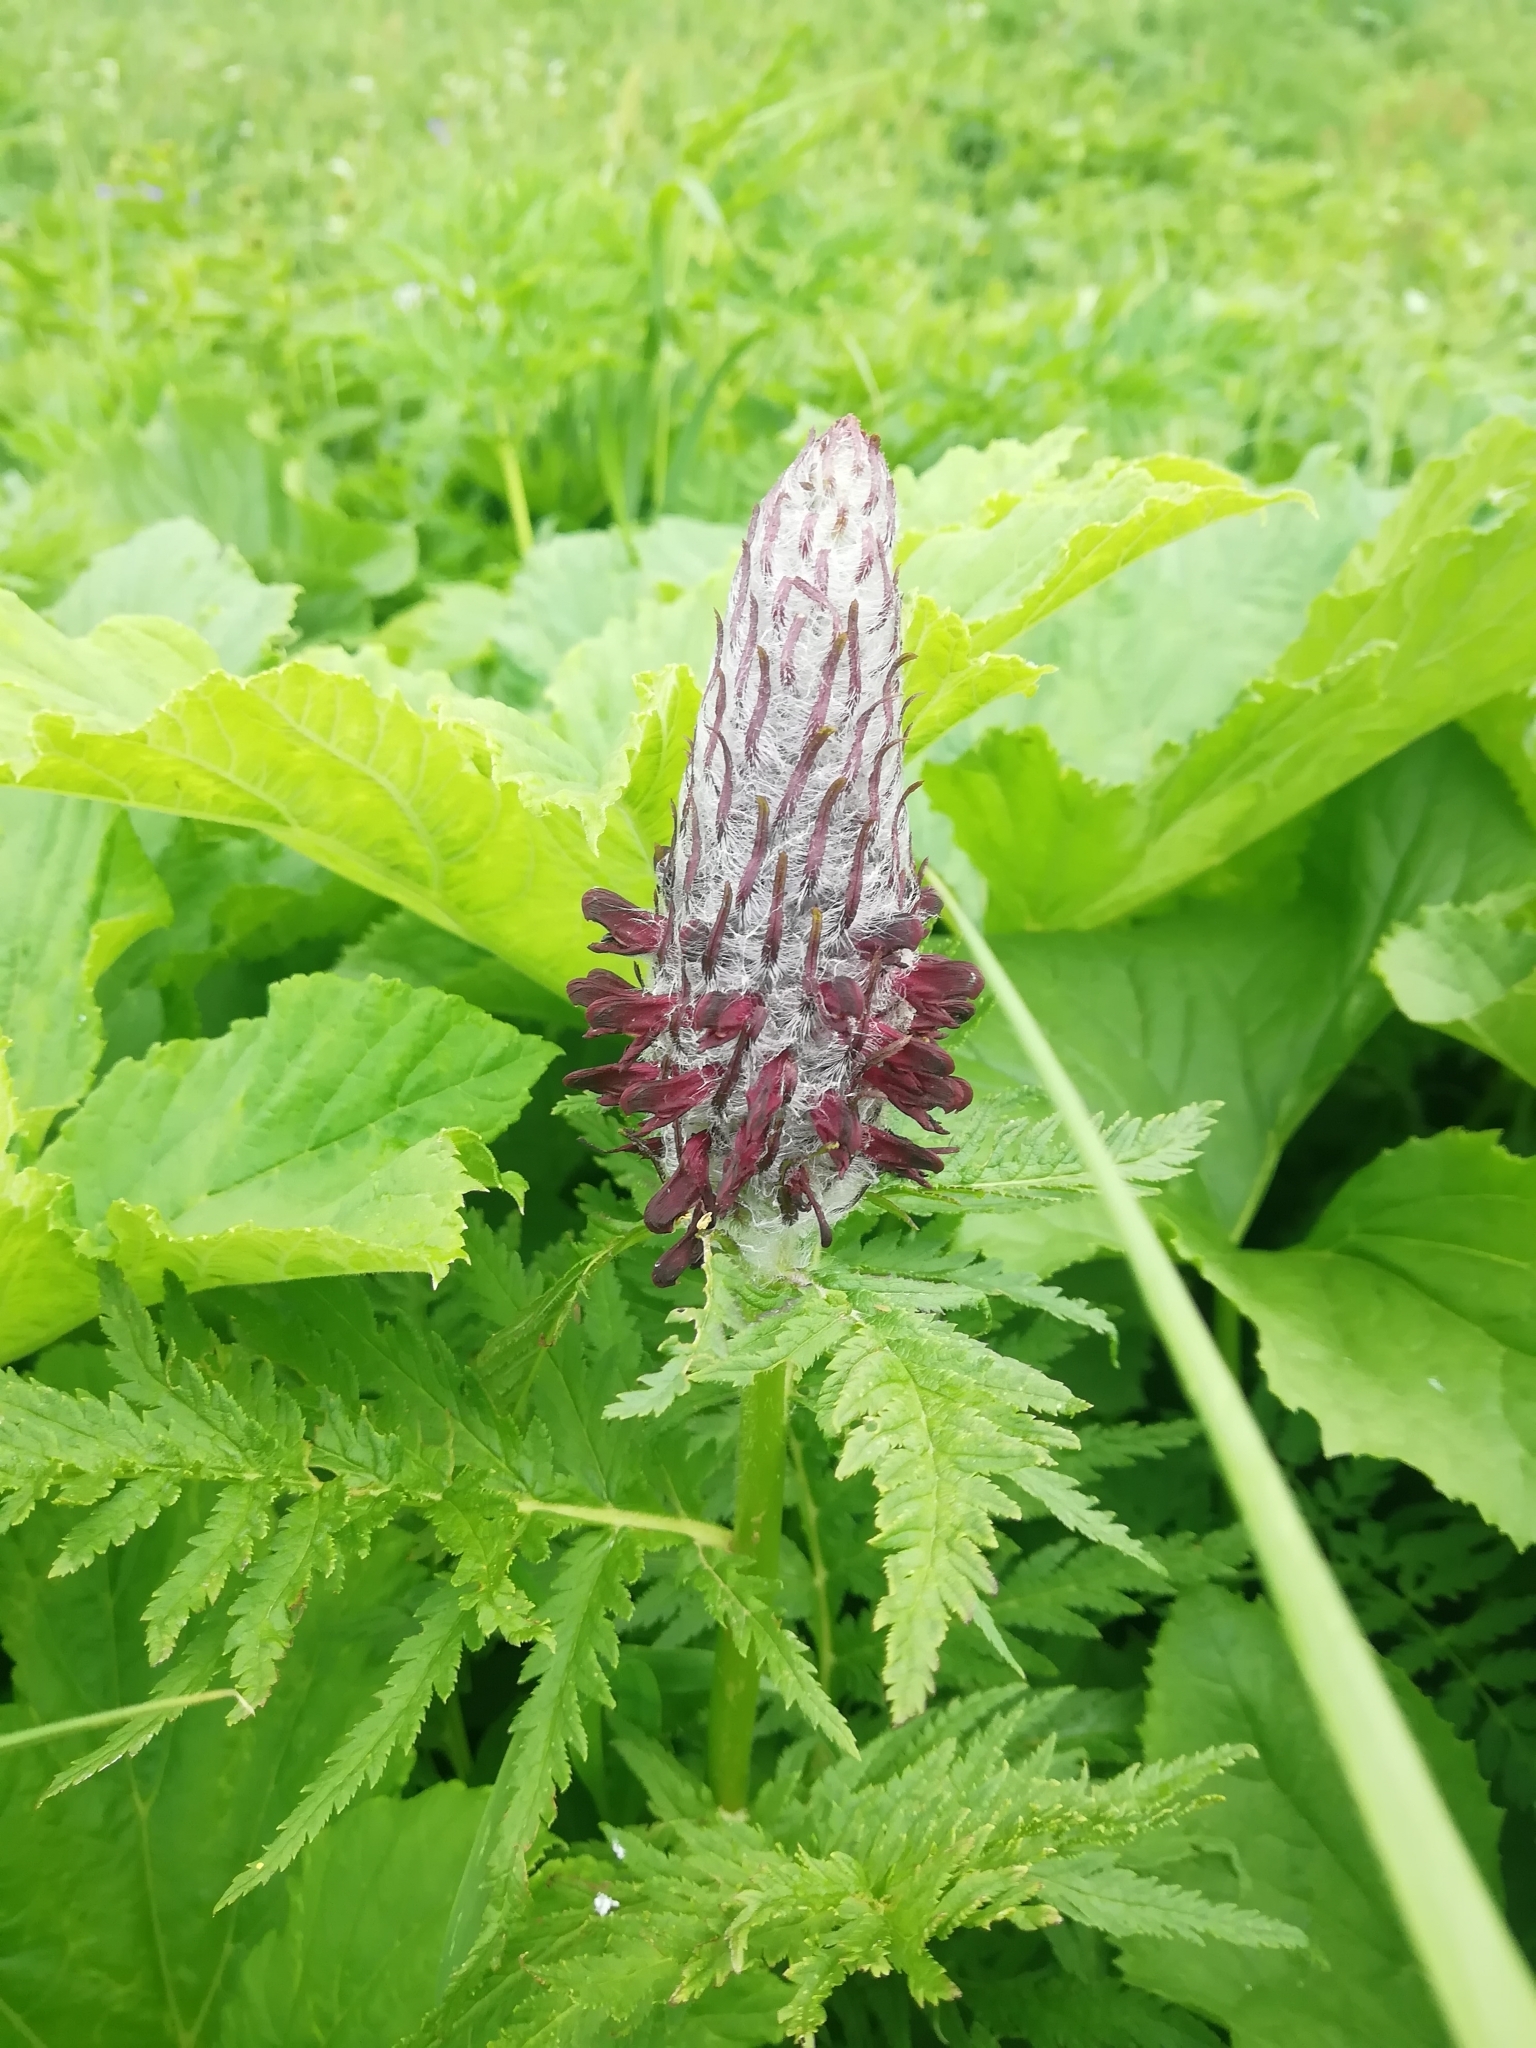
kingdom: Plantae
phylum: Tracheophyta
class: Magnoliopsida
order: Lamiales
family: Orobanchaceae
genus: Pedicularis
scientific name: Pedicularis atropurpurea
